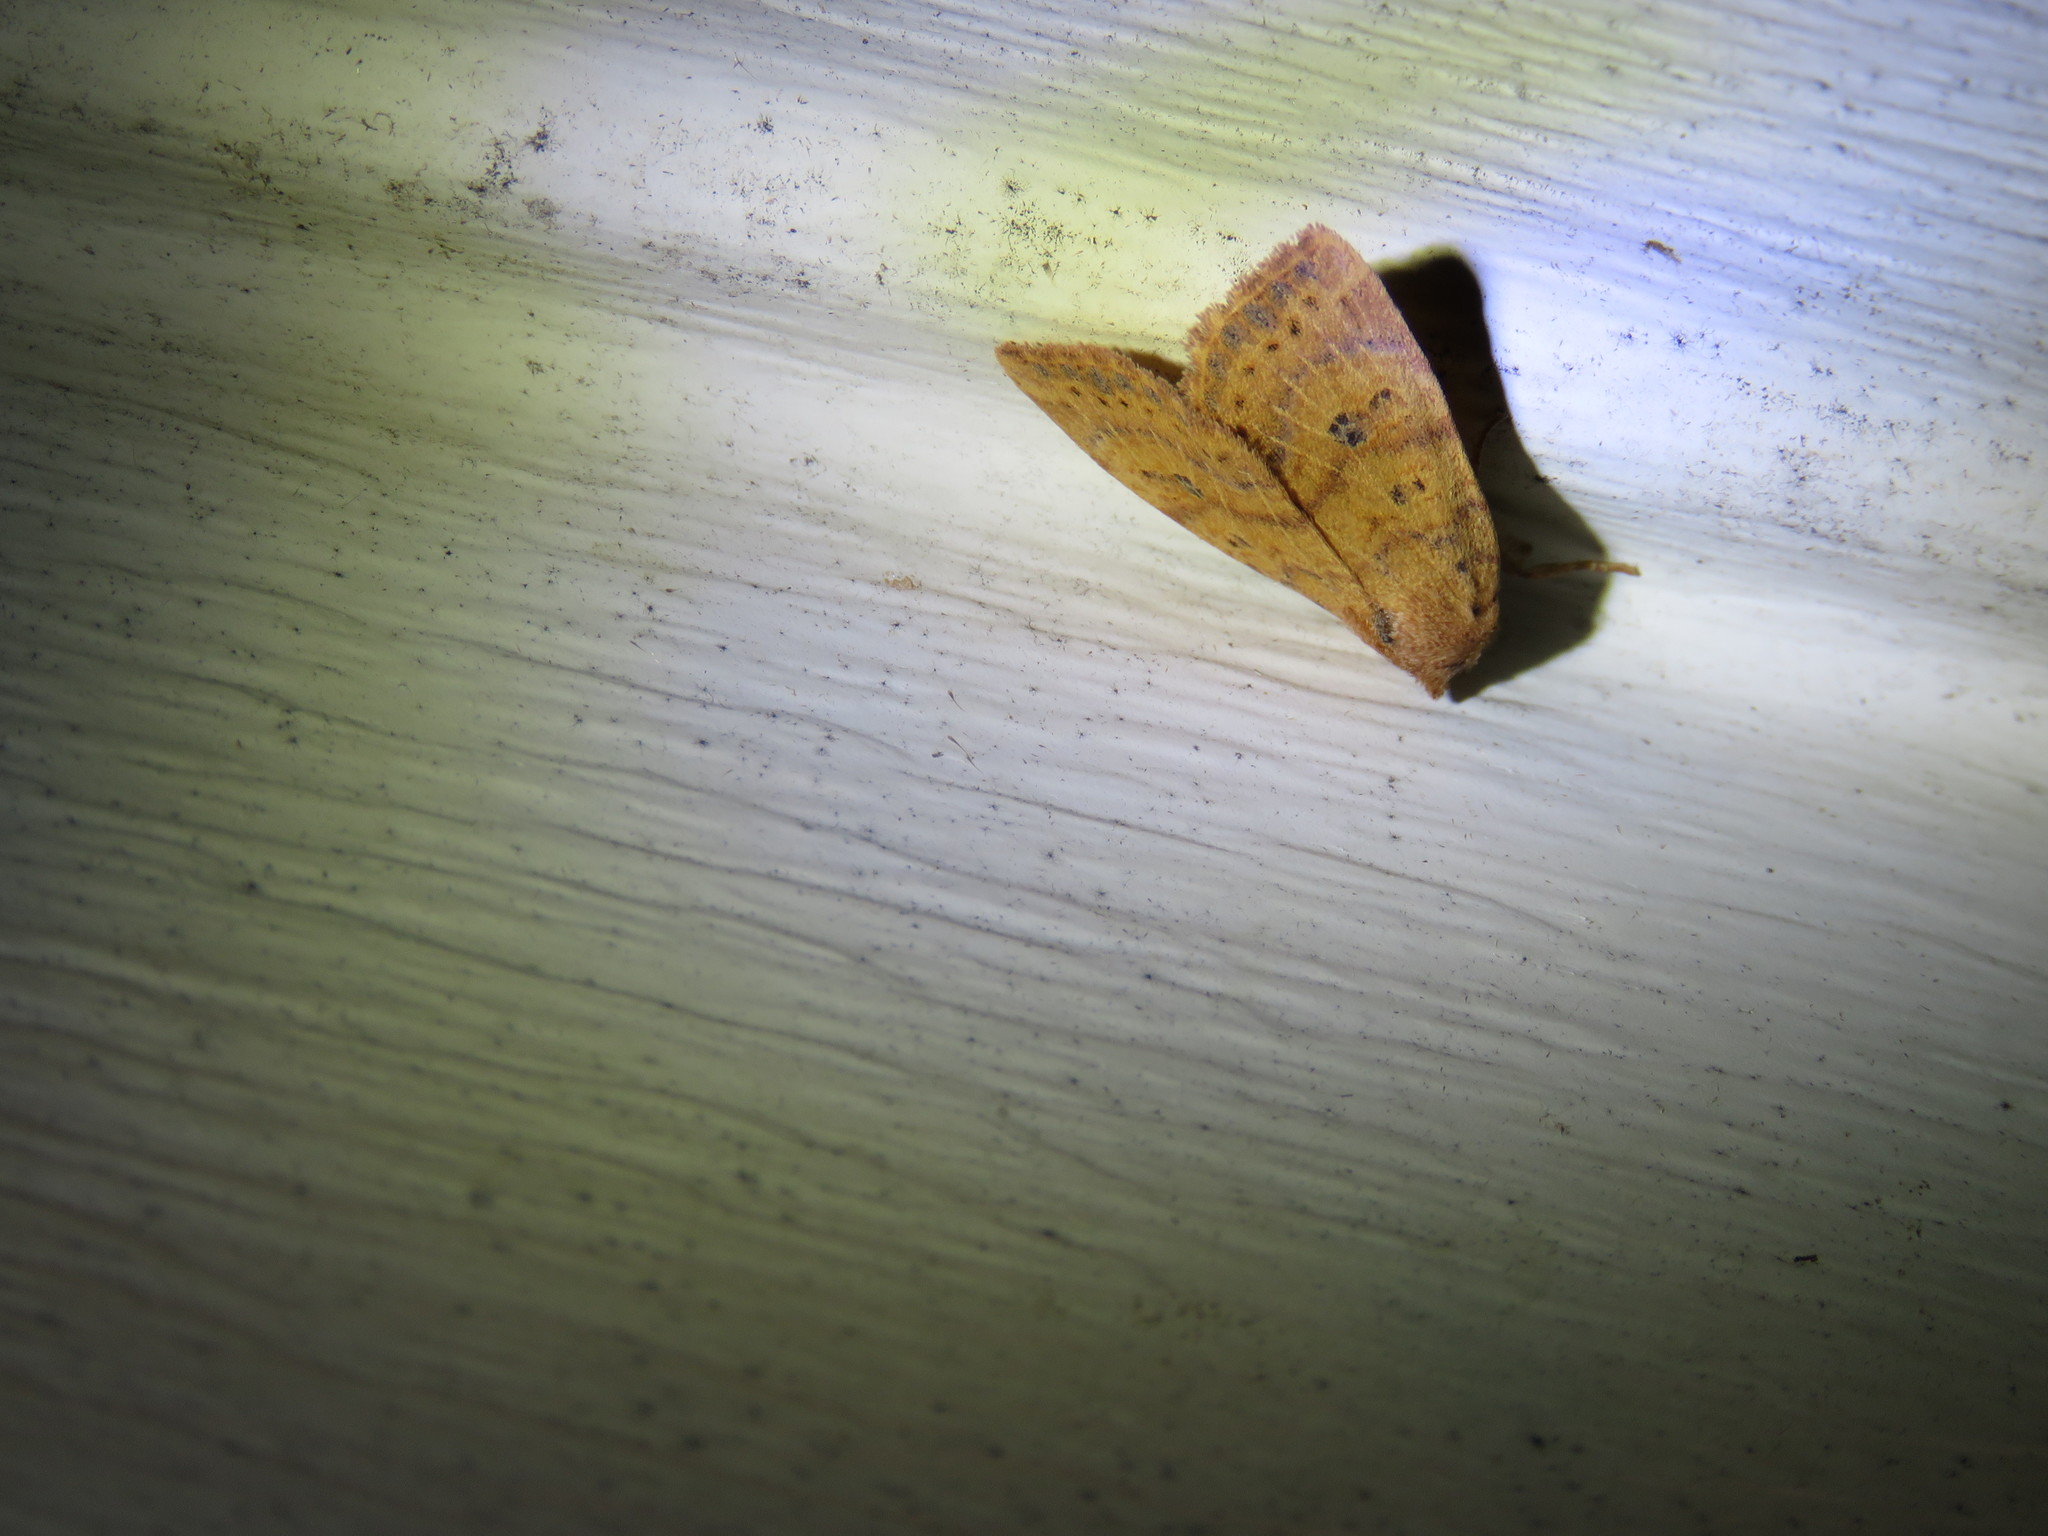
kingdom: Animalia
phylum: Arthropoda
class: Insecta
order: Lepidoptera
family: Noctuidae
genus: Anathix
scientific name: Anathix ralla
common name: Dotted sallow
